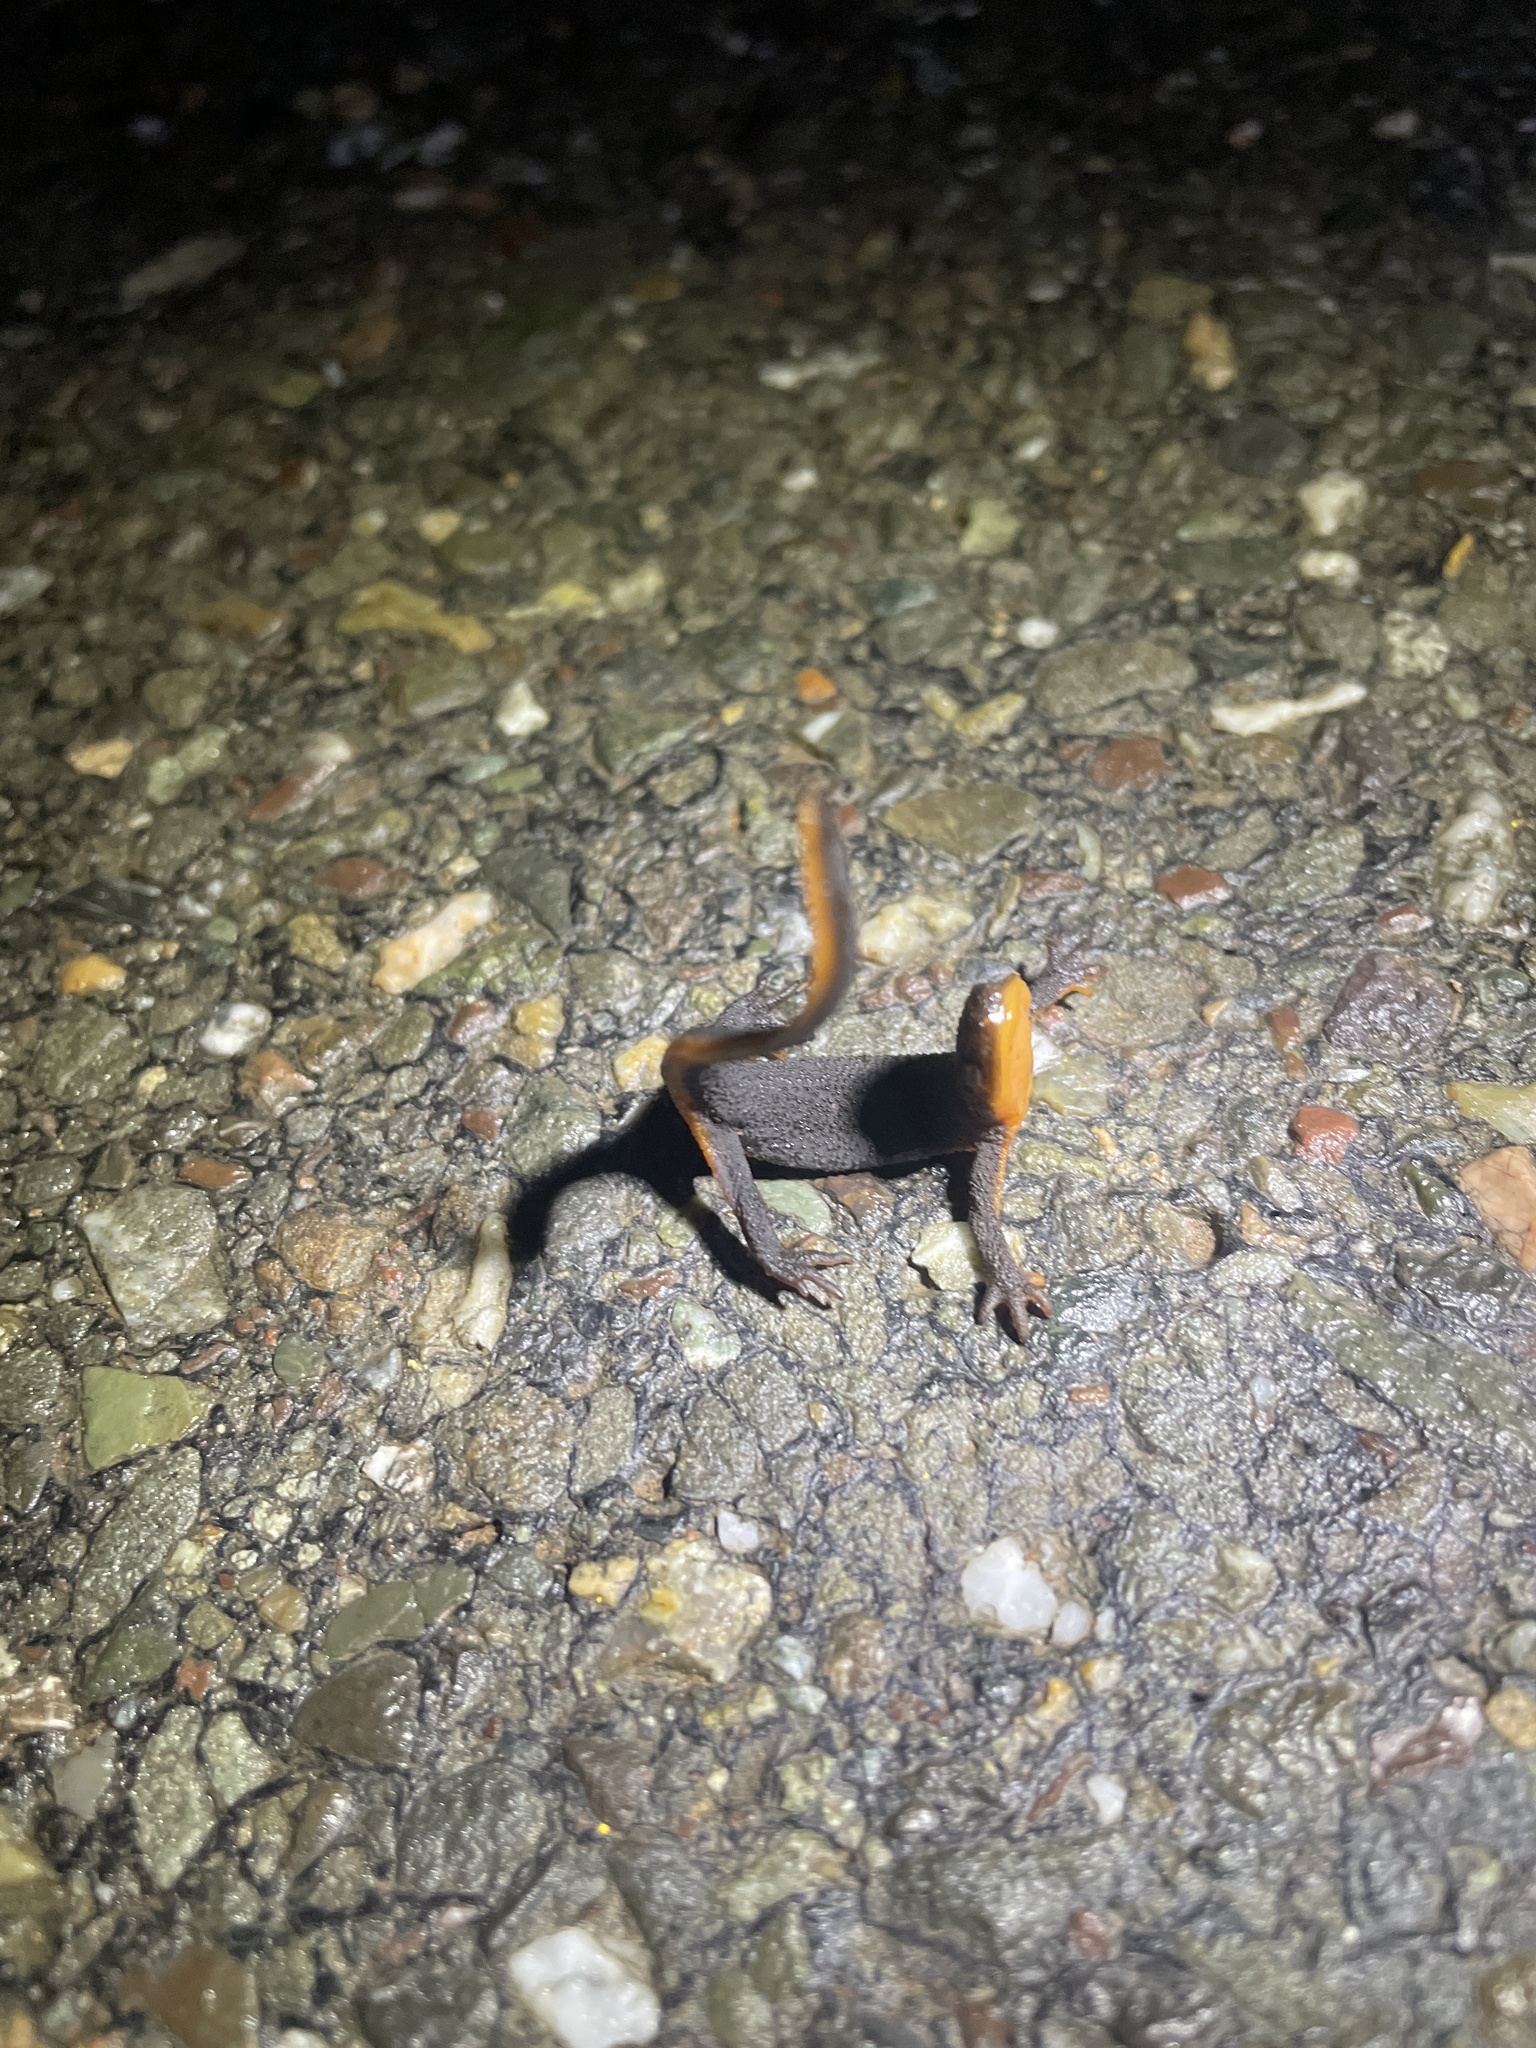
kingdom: Animalia
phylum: Chordata
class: Amphibia
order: Caudata
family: Salamandridae
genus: Taricha
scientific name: Taricha granulosa
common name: Roughskin newt
